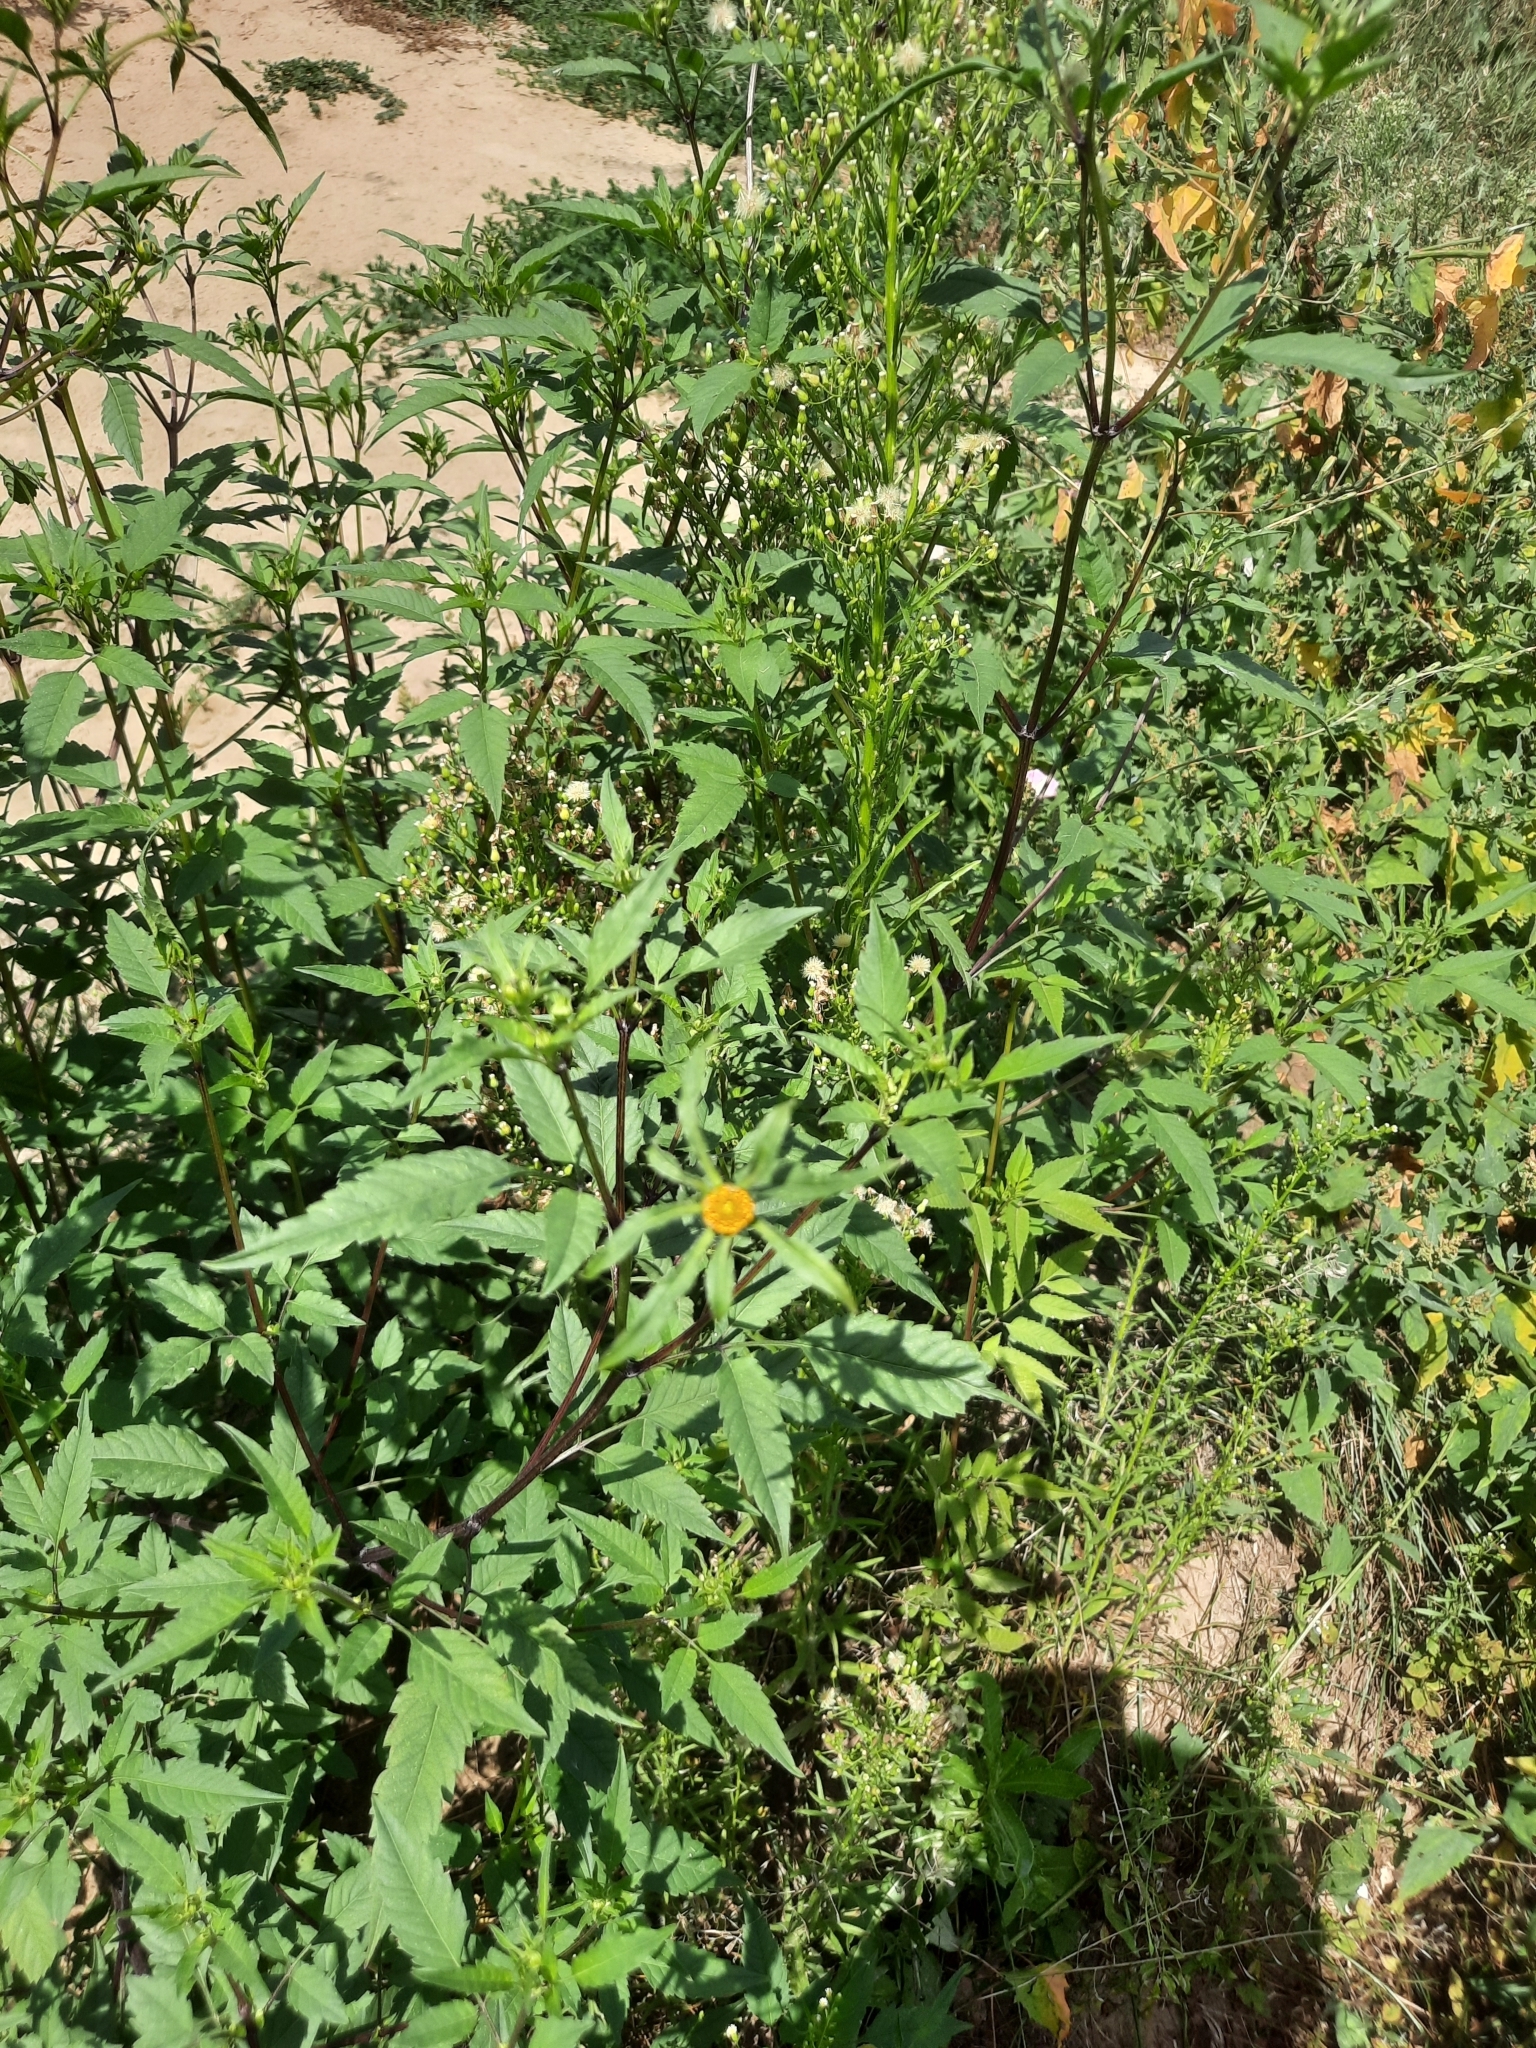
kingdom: Plantae
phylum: Tracheophyta
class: Magnoliopsida
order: Asterales
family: Asteraceae
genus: Bidens
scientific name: Bidens frondosa
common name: Beggarticks
